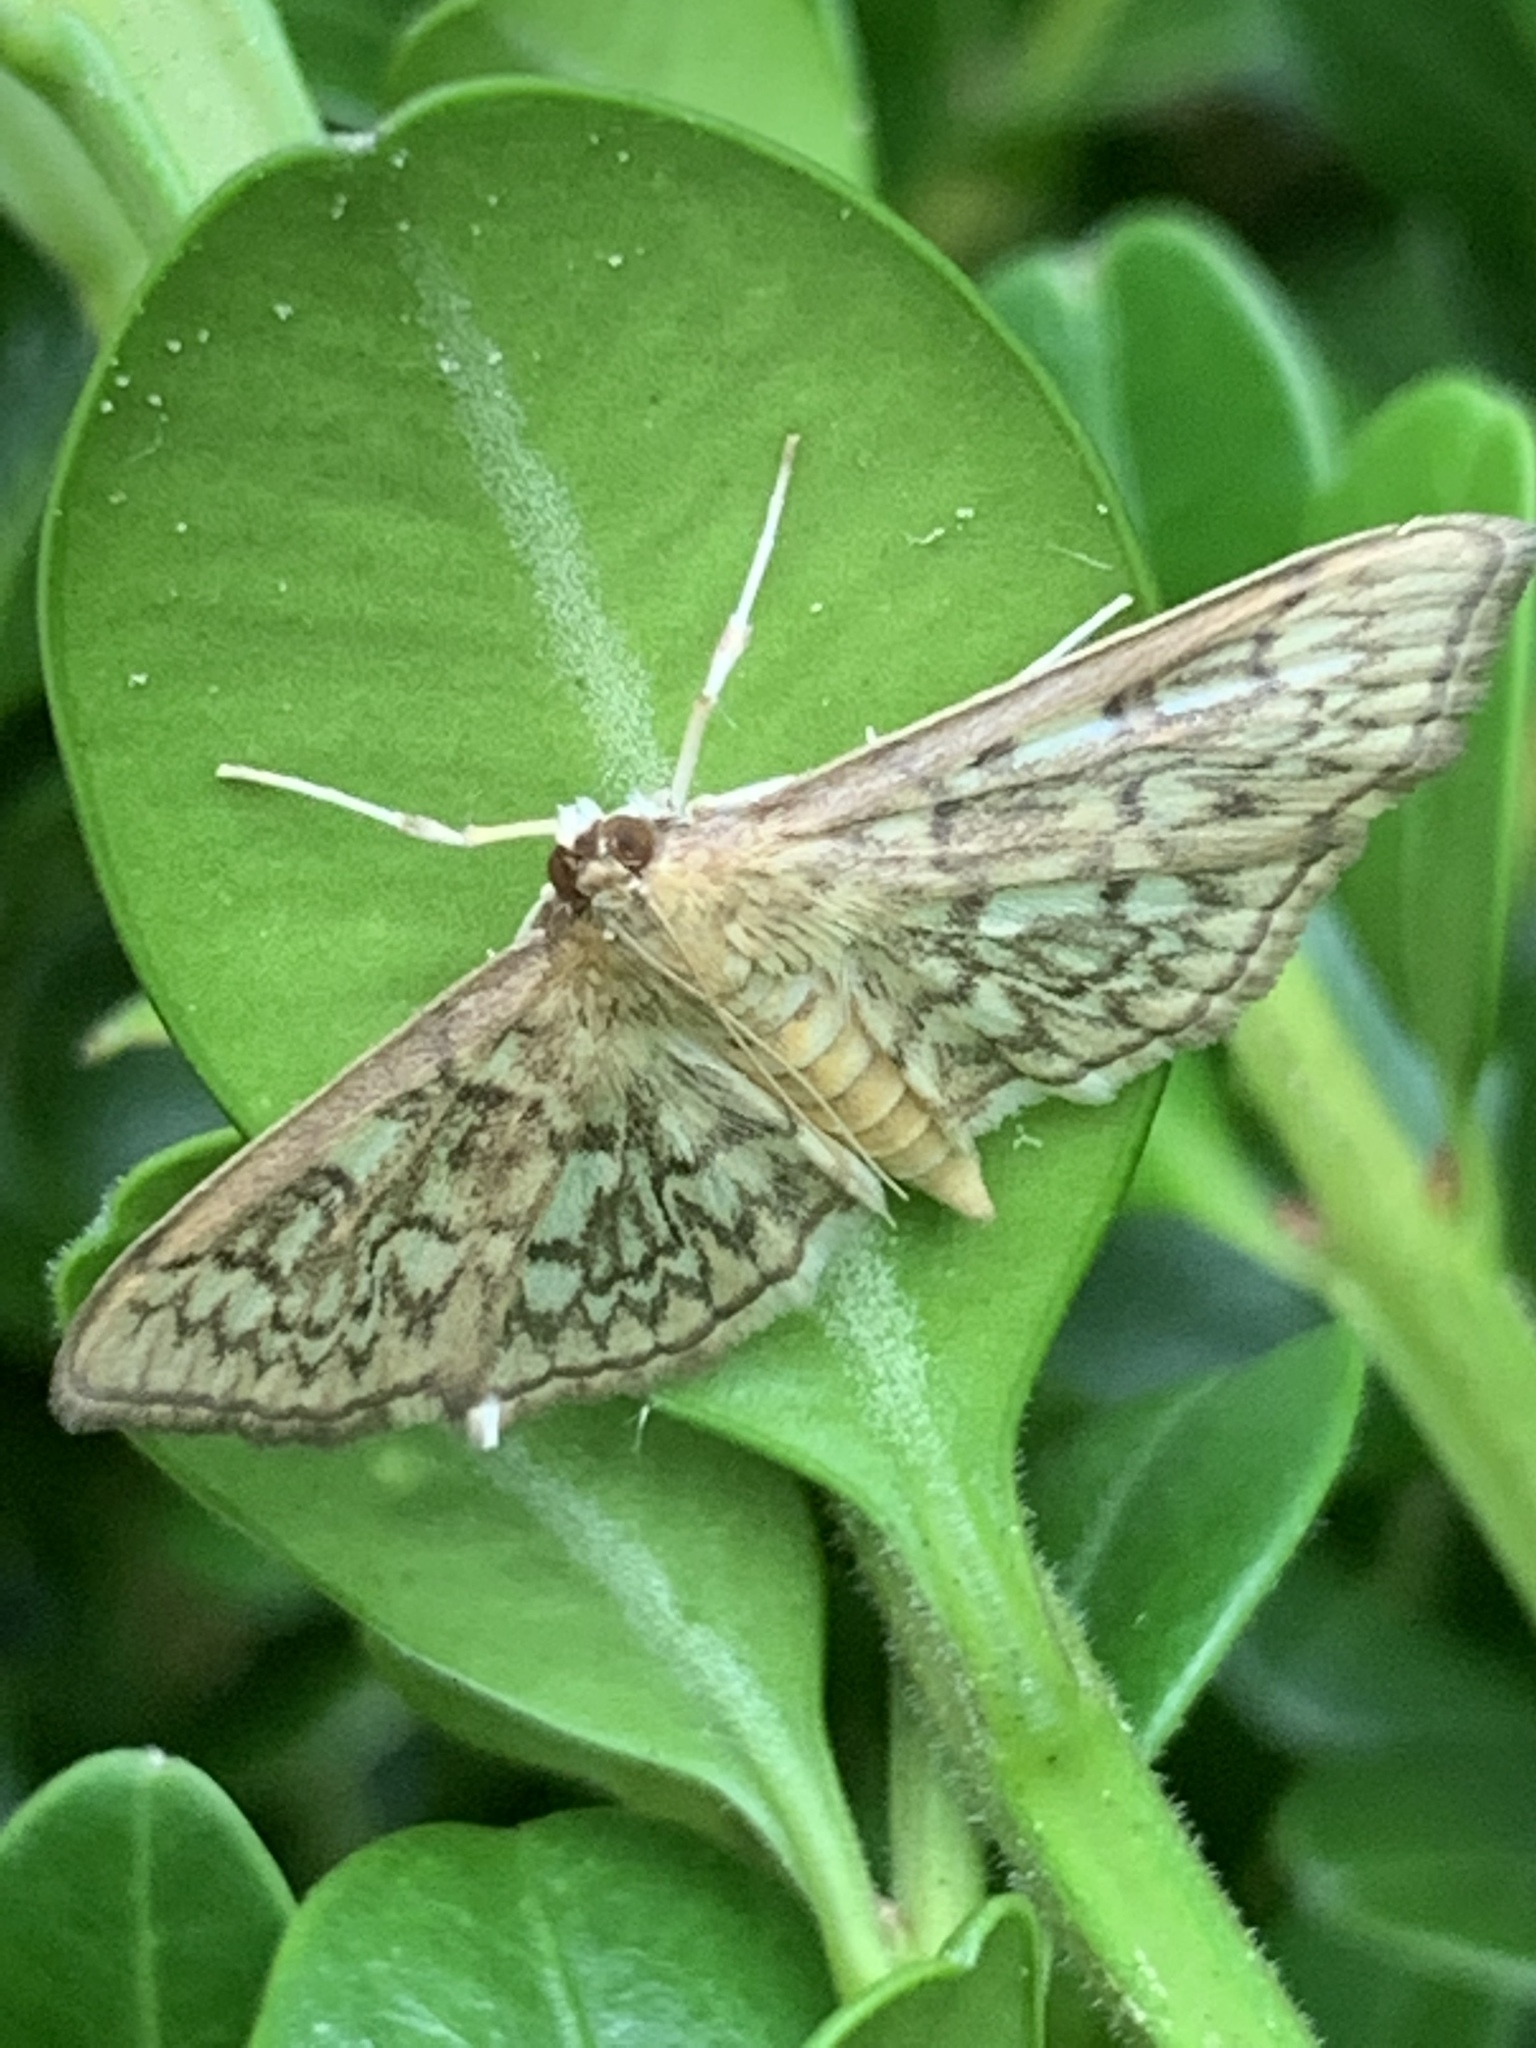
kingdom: Animalia
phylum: Arthropoda
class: Insecta
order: Lepidoptera
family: Crambidae
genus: Herpetogramma
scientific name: Herpetogramma pertextalis
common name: Bold-feathered grass moth
